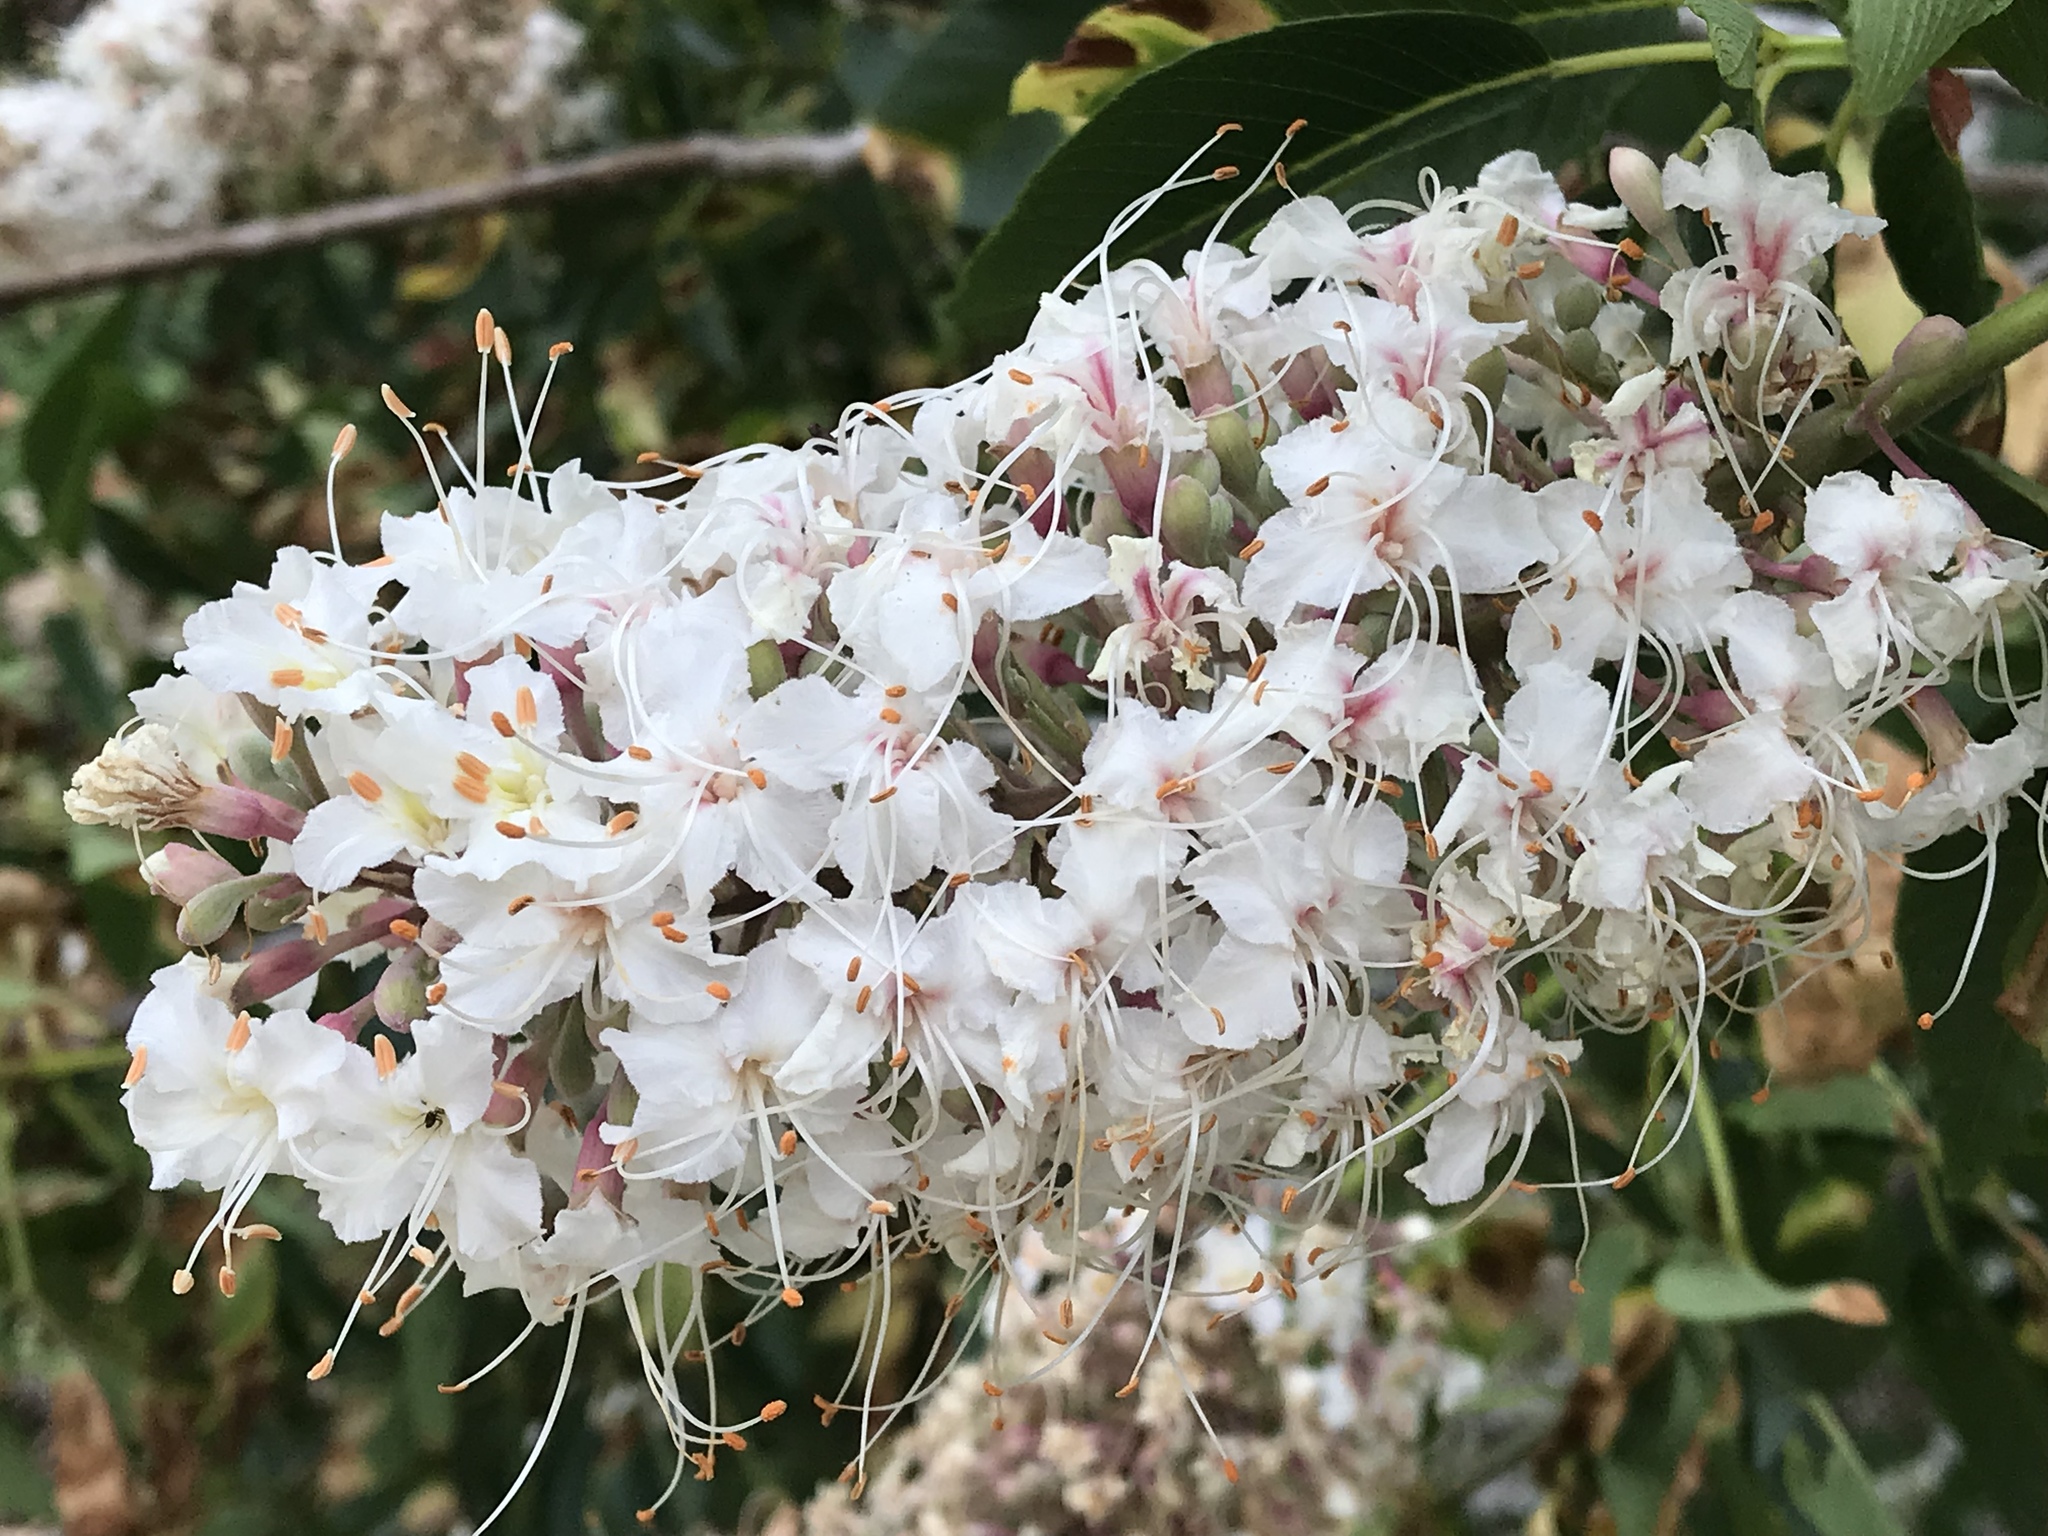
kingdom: Plantae
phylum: Tracheophyta
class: Magnoliopsida
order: Sapindales
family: Sapindaceae
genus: Aesculus
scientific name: Aesculus californica
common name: California buckeye
